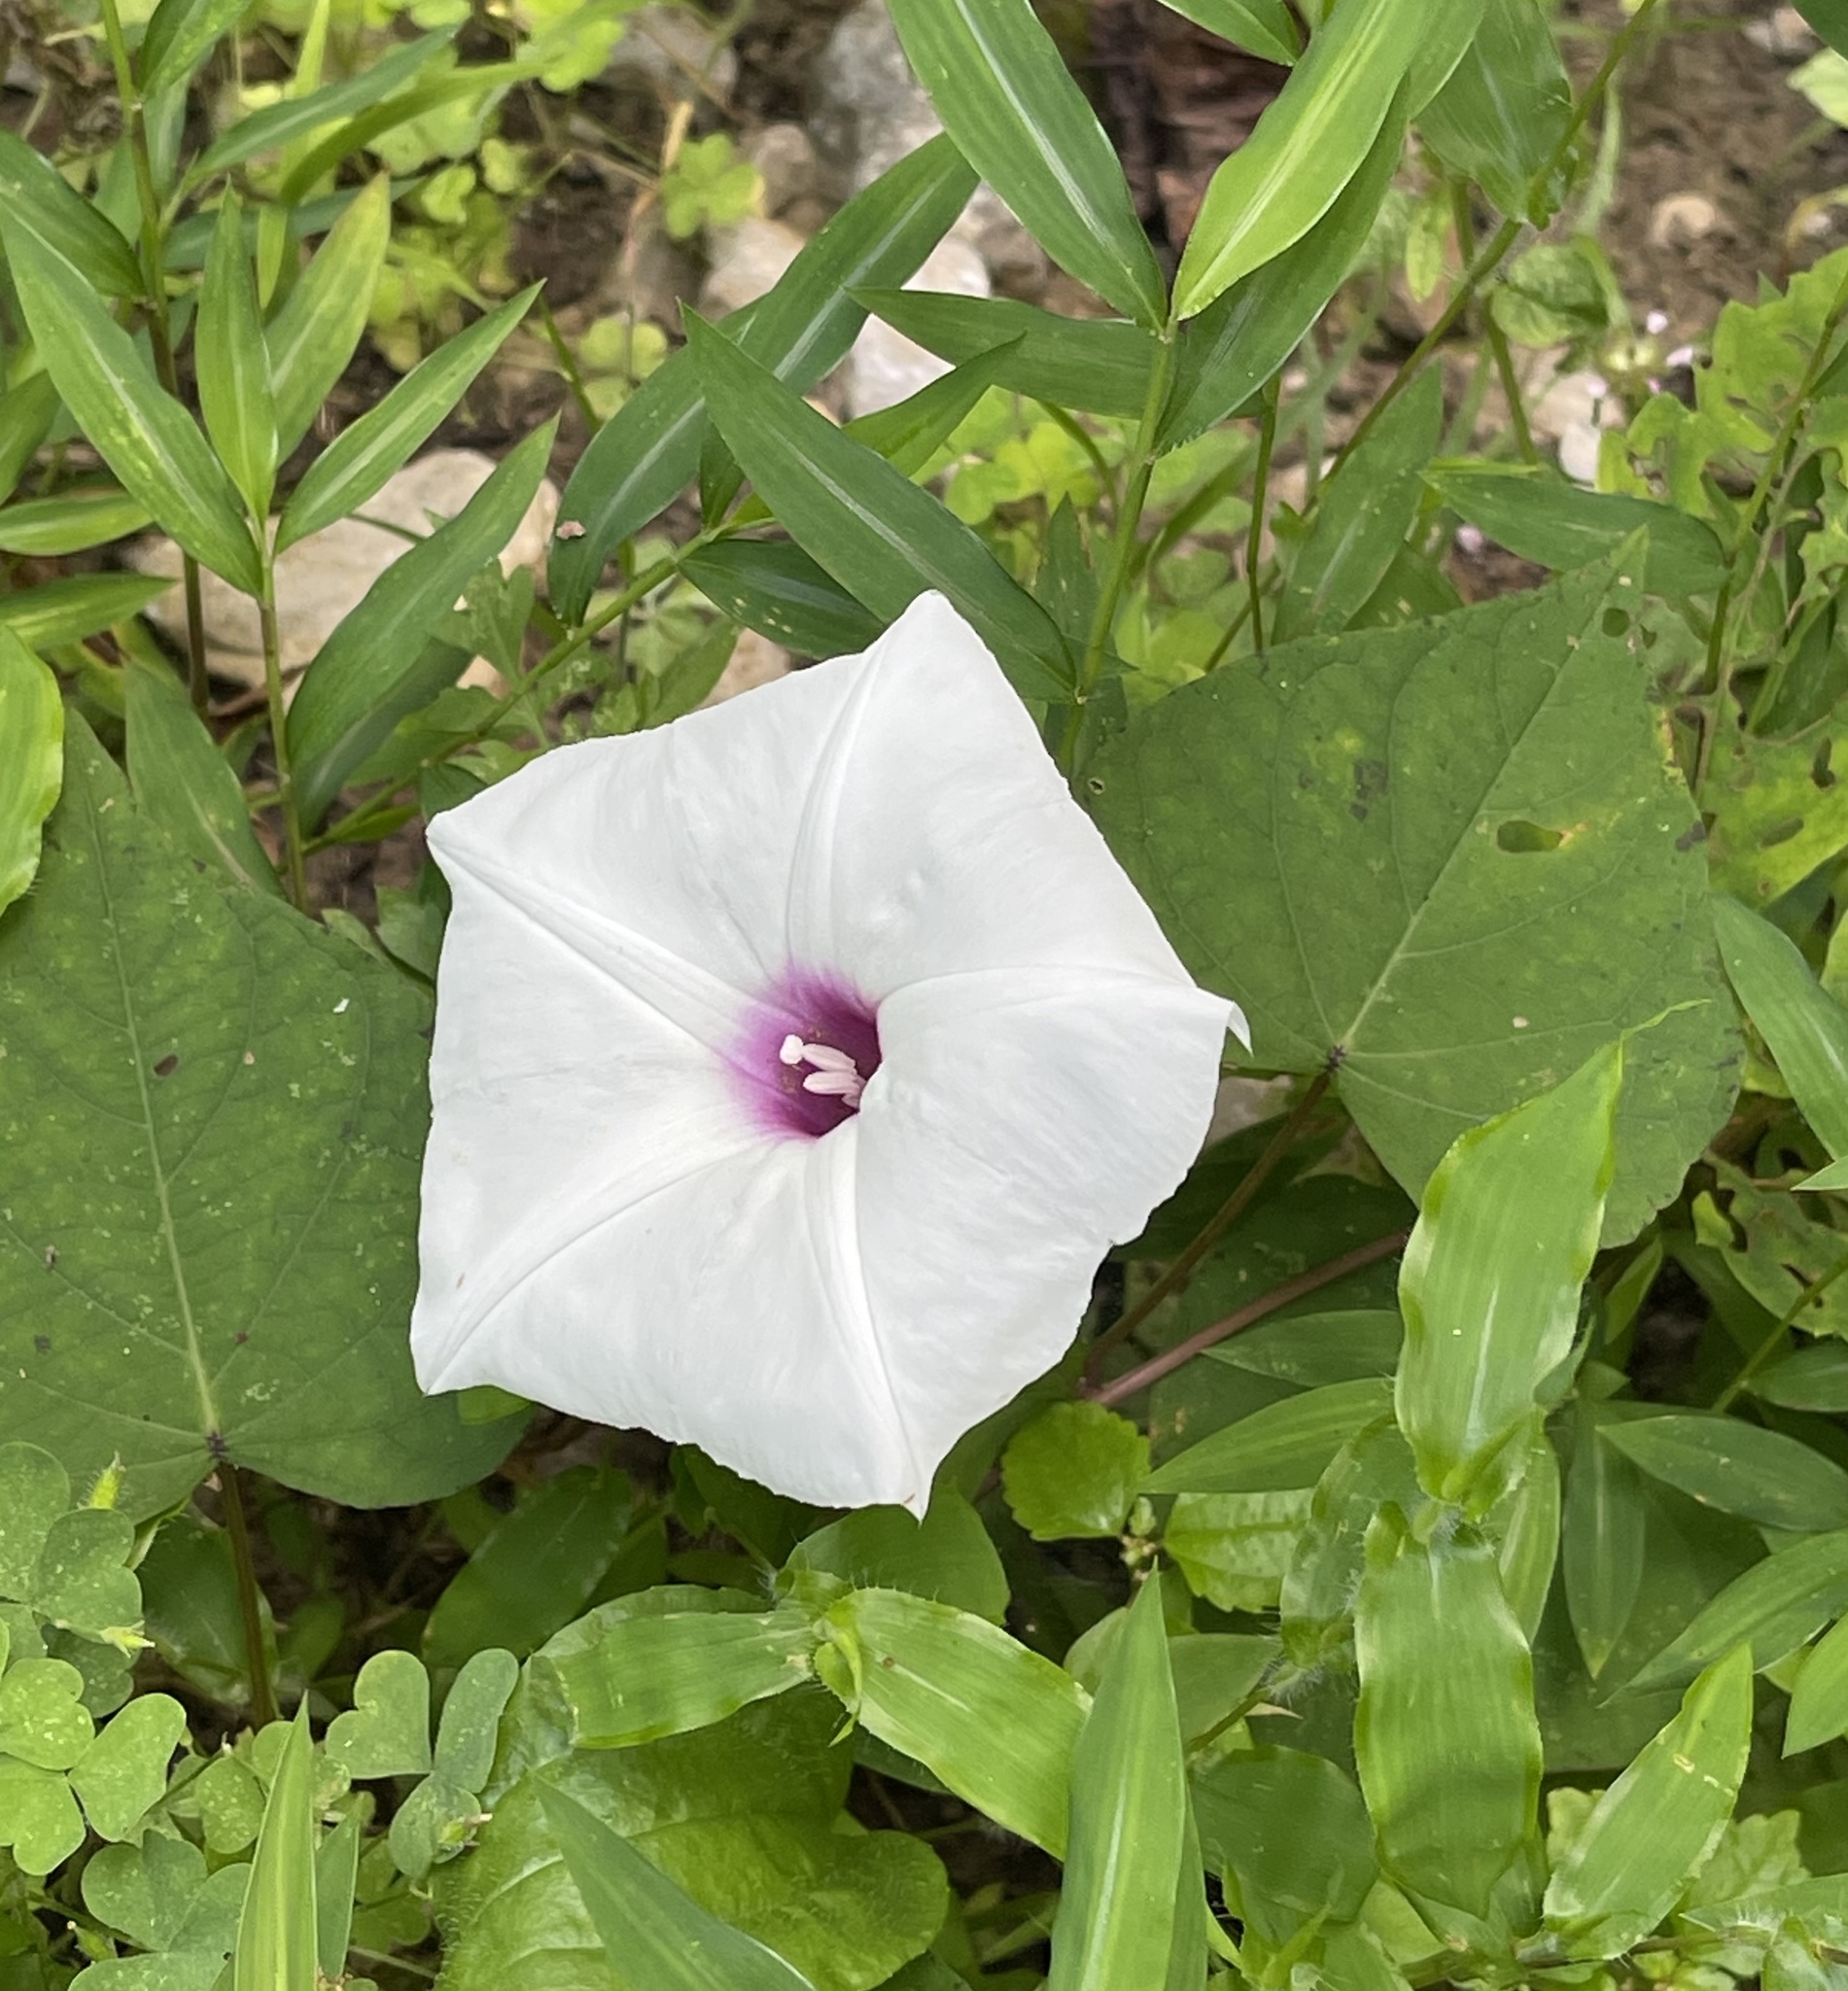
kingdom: Plantae
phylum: Tracheophyta
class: Magnoliopsida
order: Solanales
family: Convolvulaceae
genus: Ipomoea
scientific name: Ipomoea pandurata
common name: Man-of-the-earth
